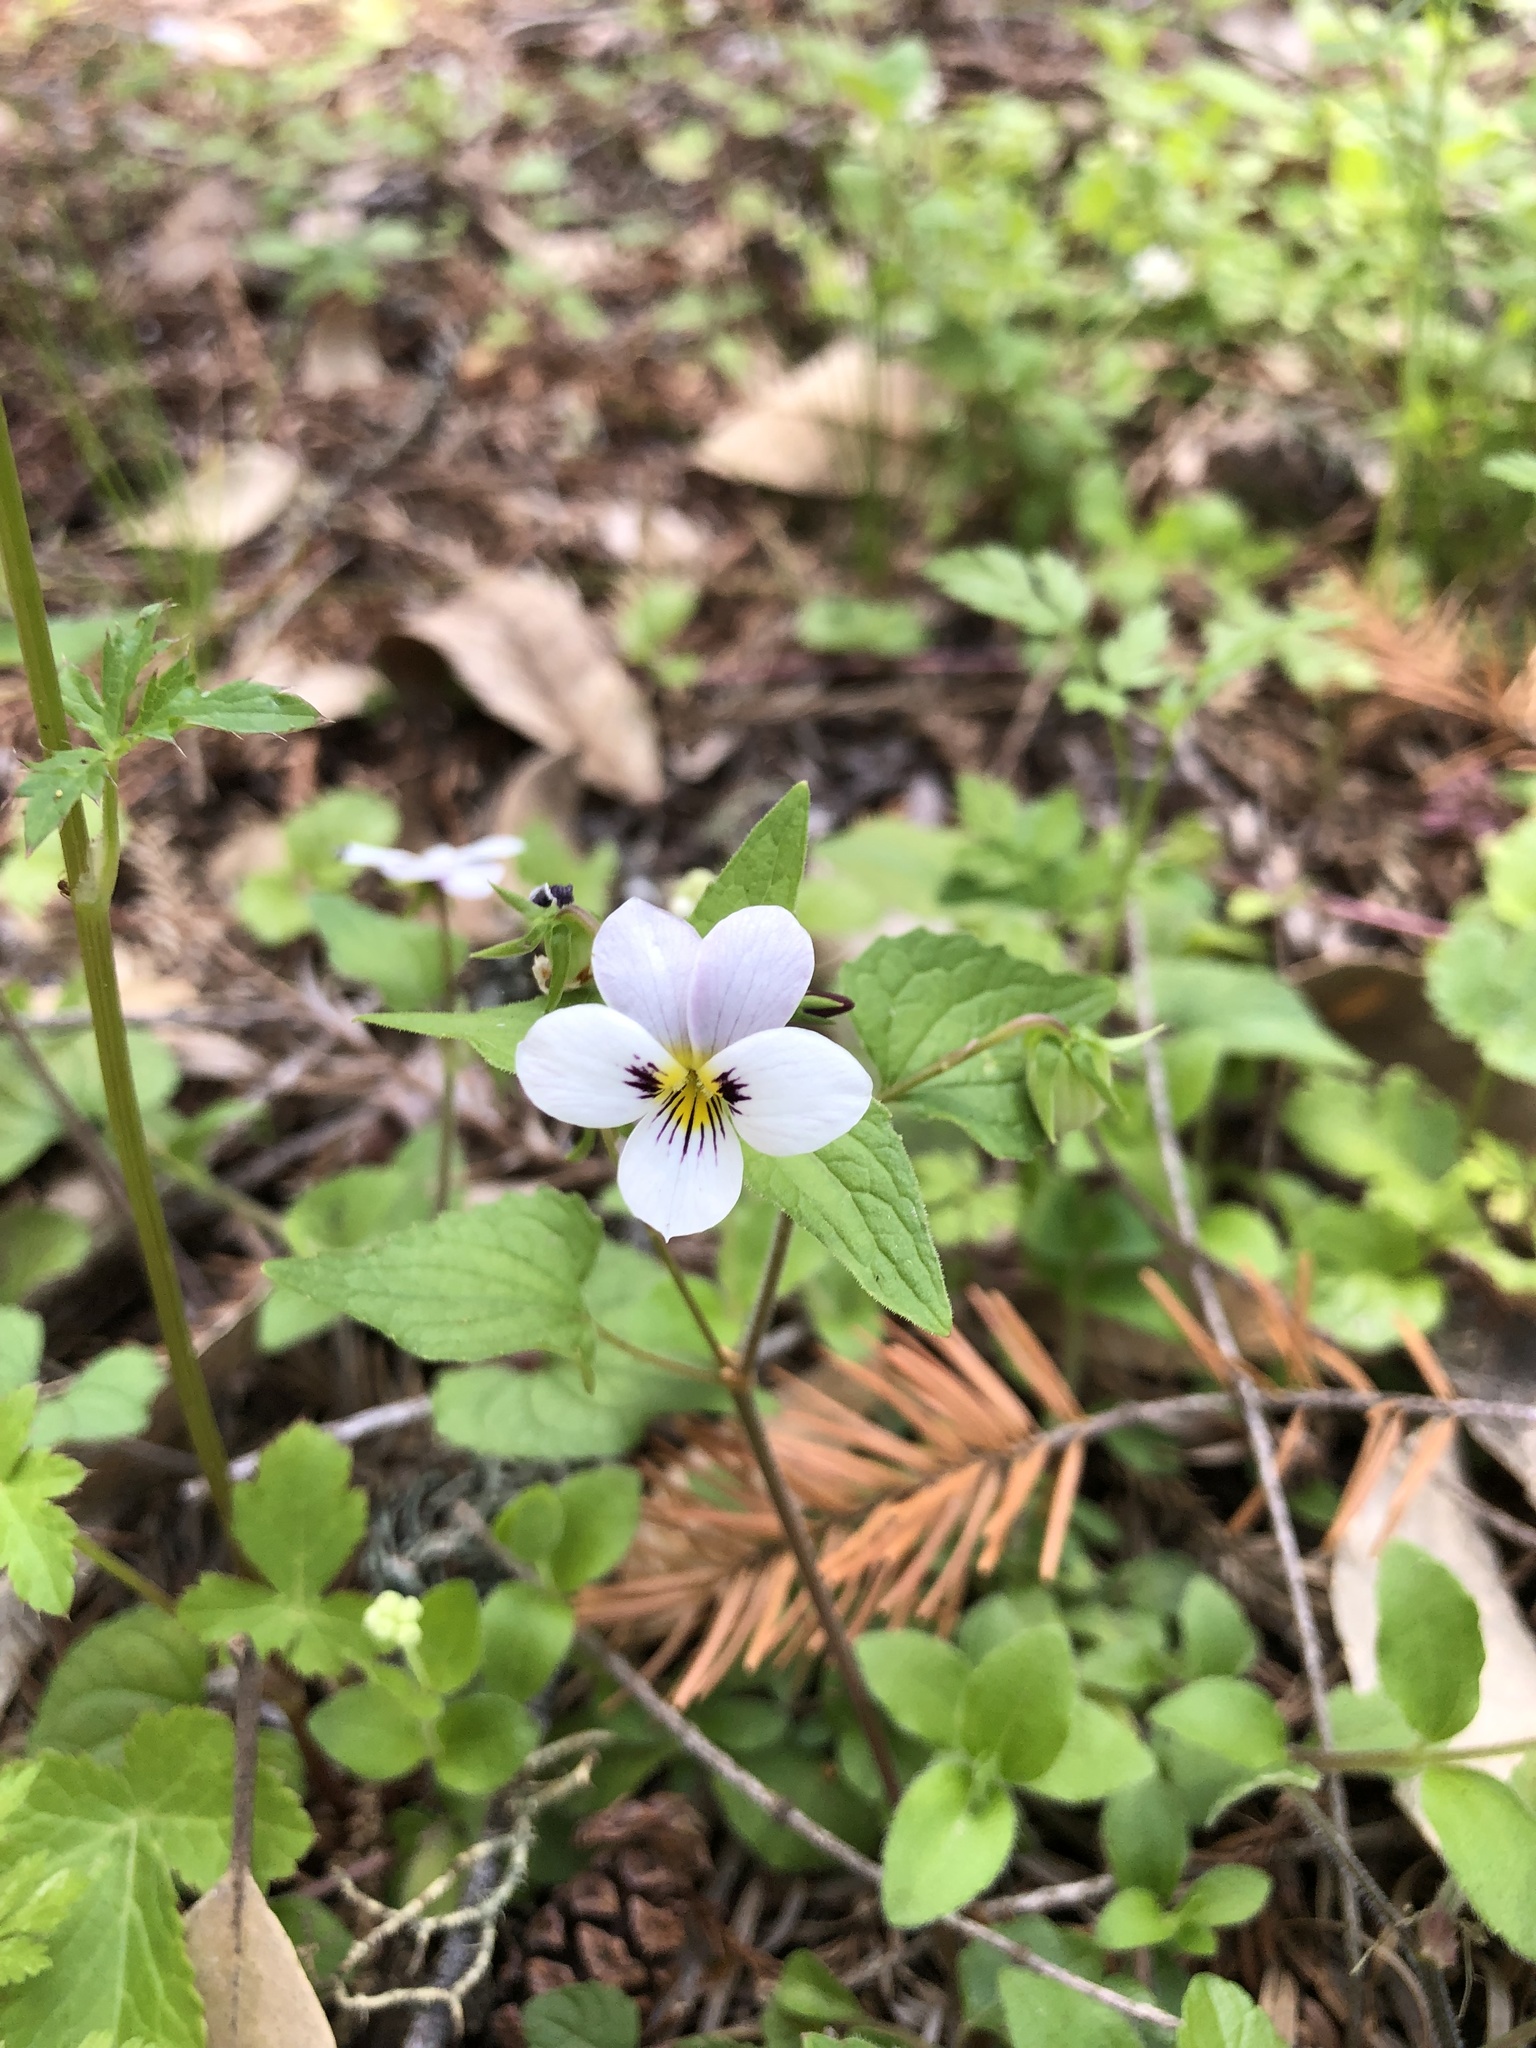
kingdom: Plantae
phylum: Tracheophyta
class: Magnoliopsida
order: Malpighiales
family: Violaceae
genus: Viola
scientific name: Viola ocellata
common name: Western heart's ease
